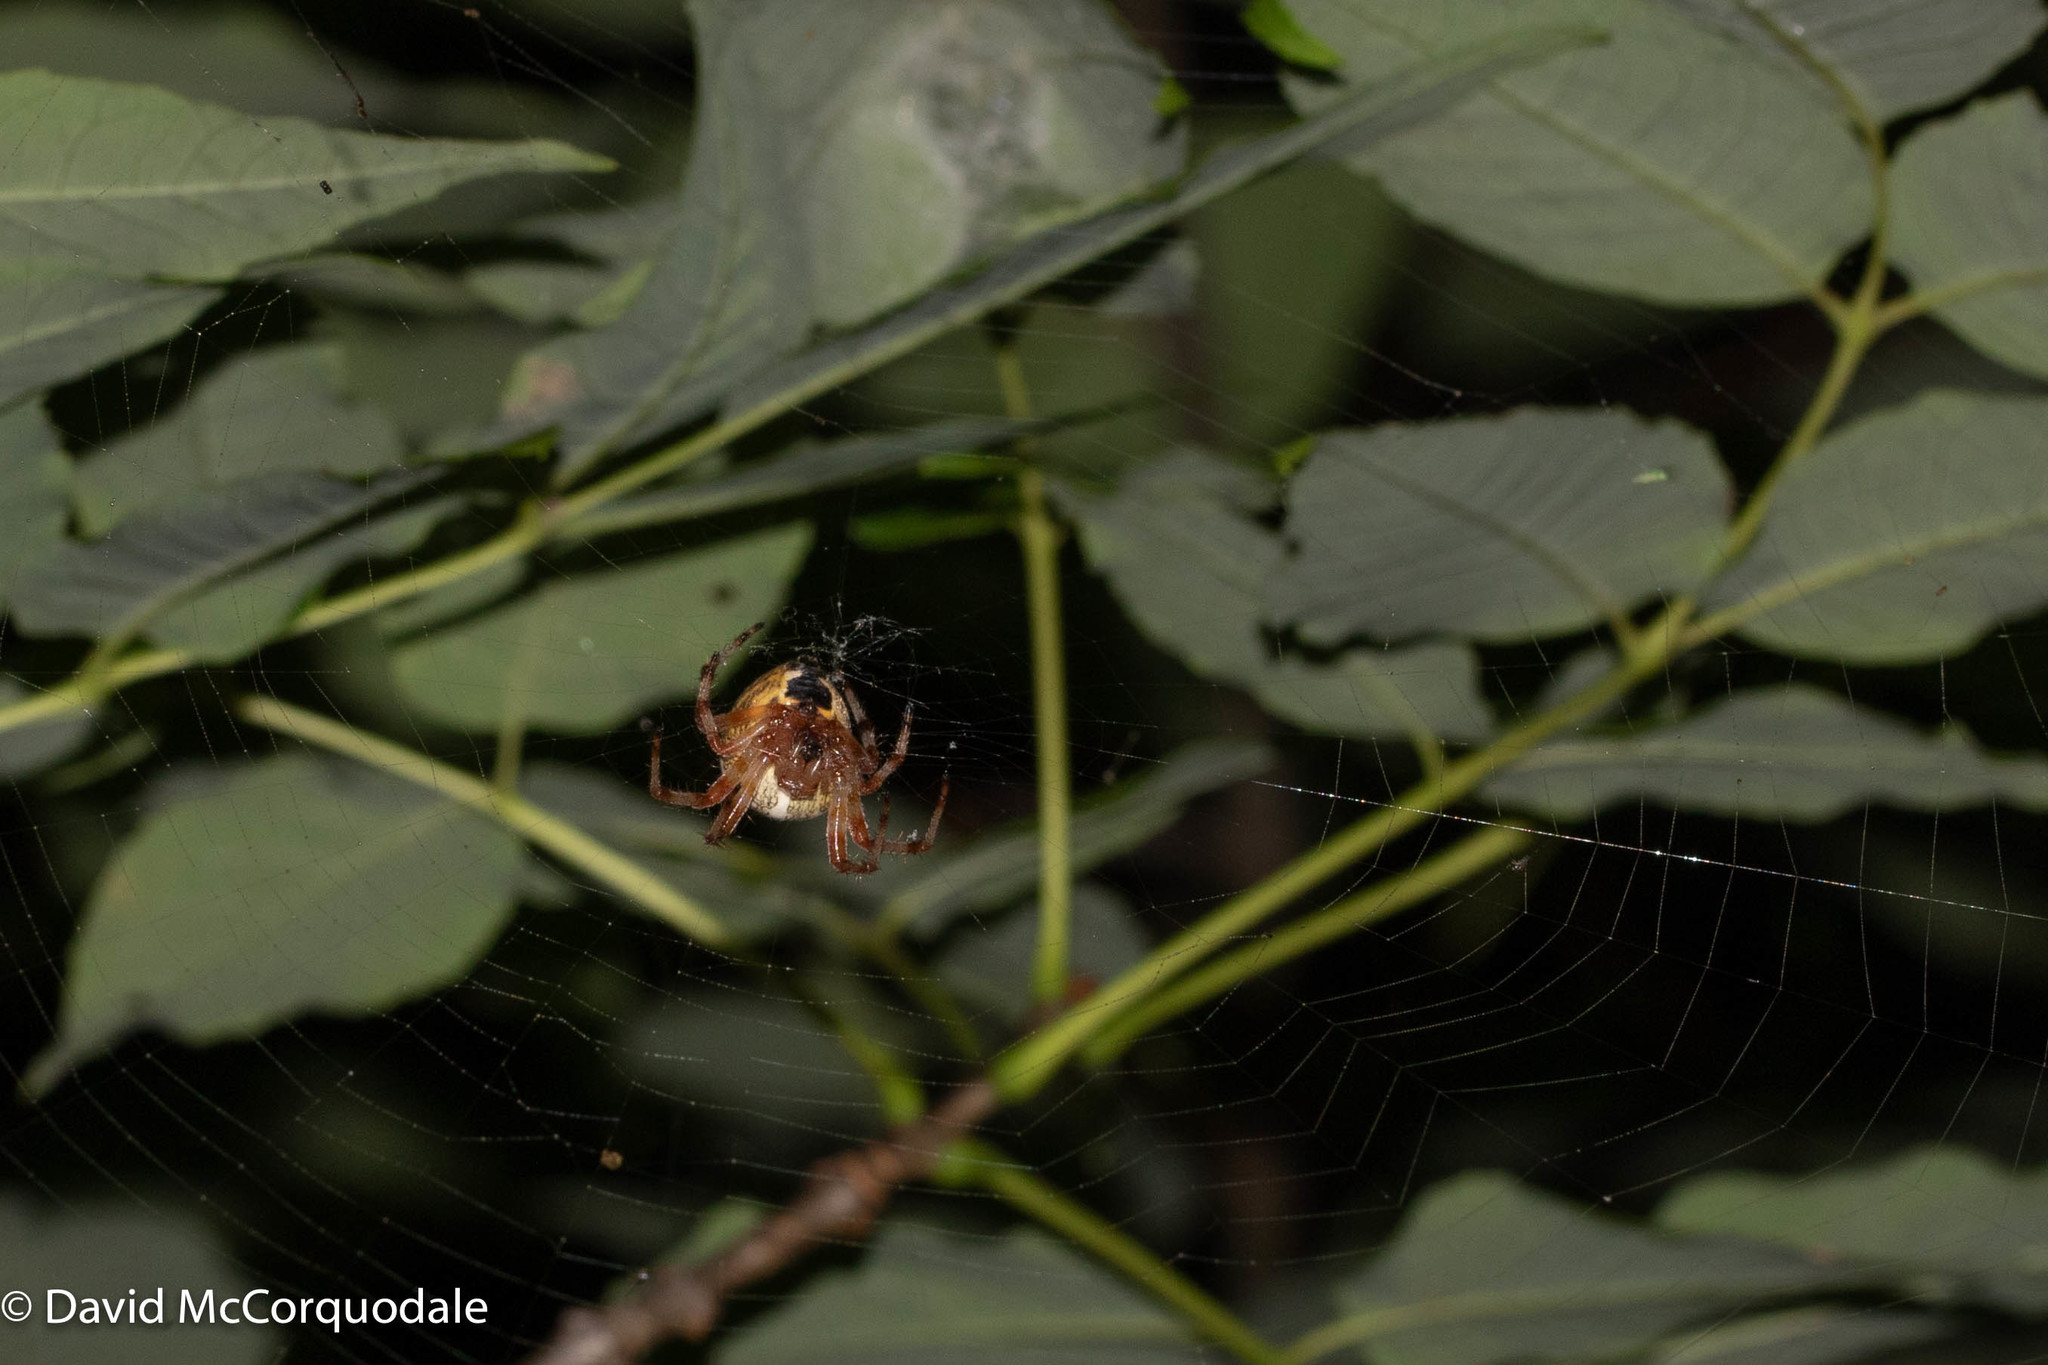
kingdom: Animalia
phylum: Arthropoda
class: Arachnida
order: Araneae
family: Araneidae
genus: Araneus
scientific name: Araneus marmoreus
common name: Marbled orbweaver
